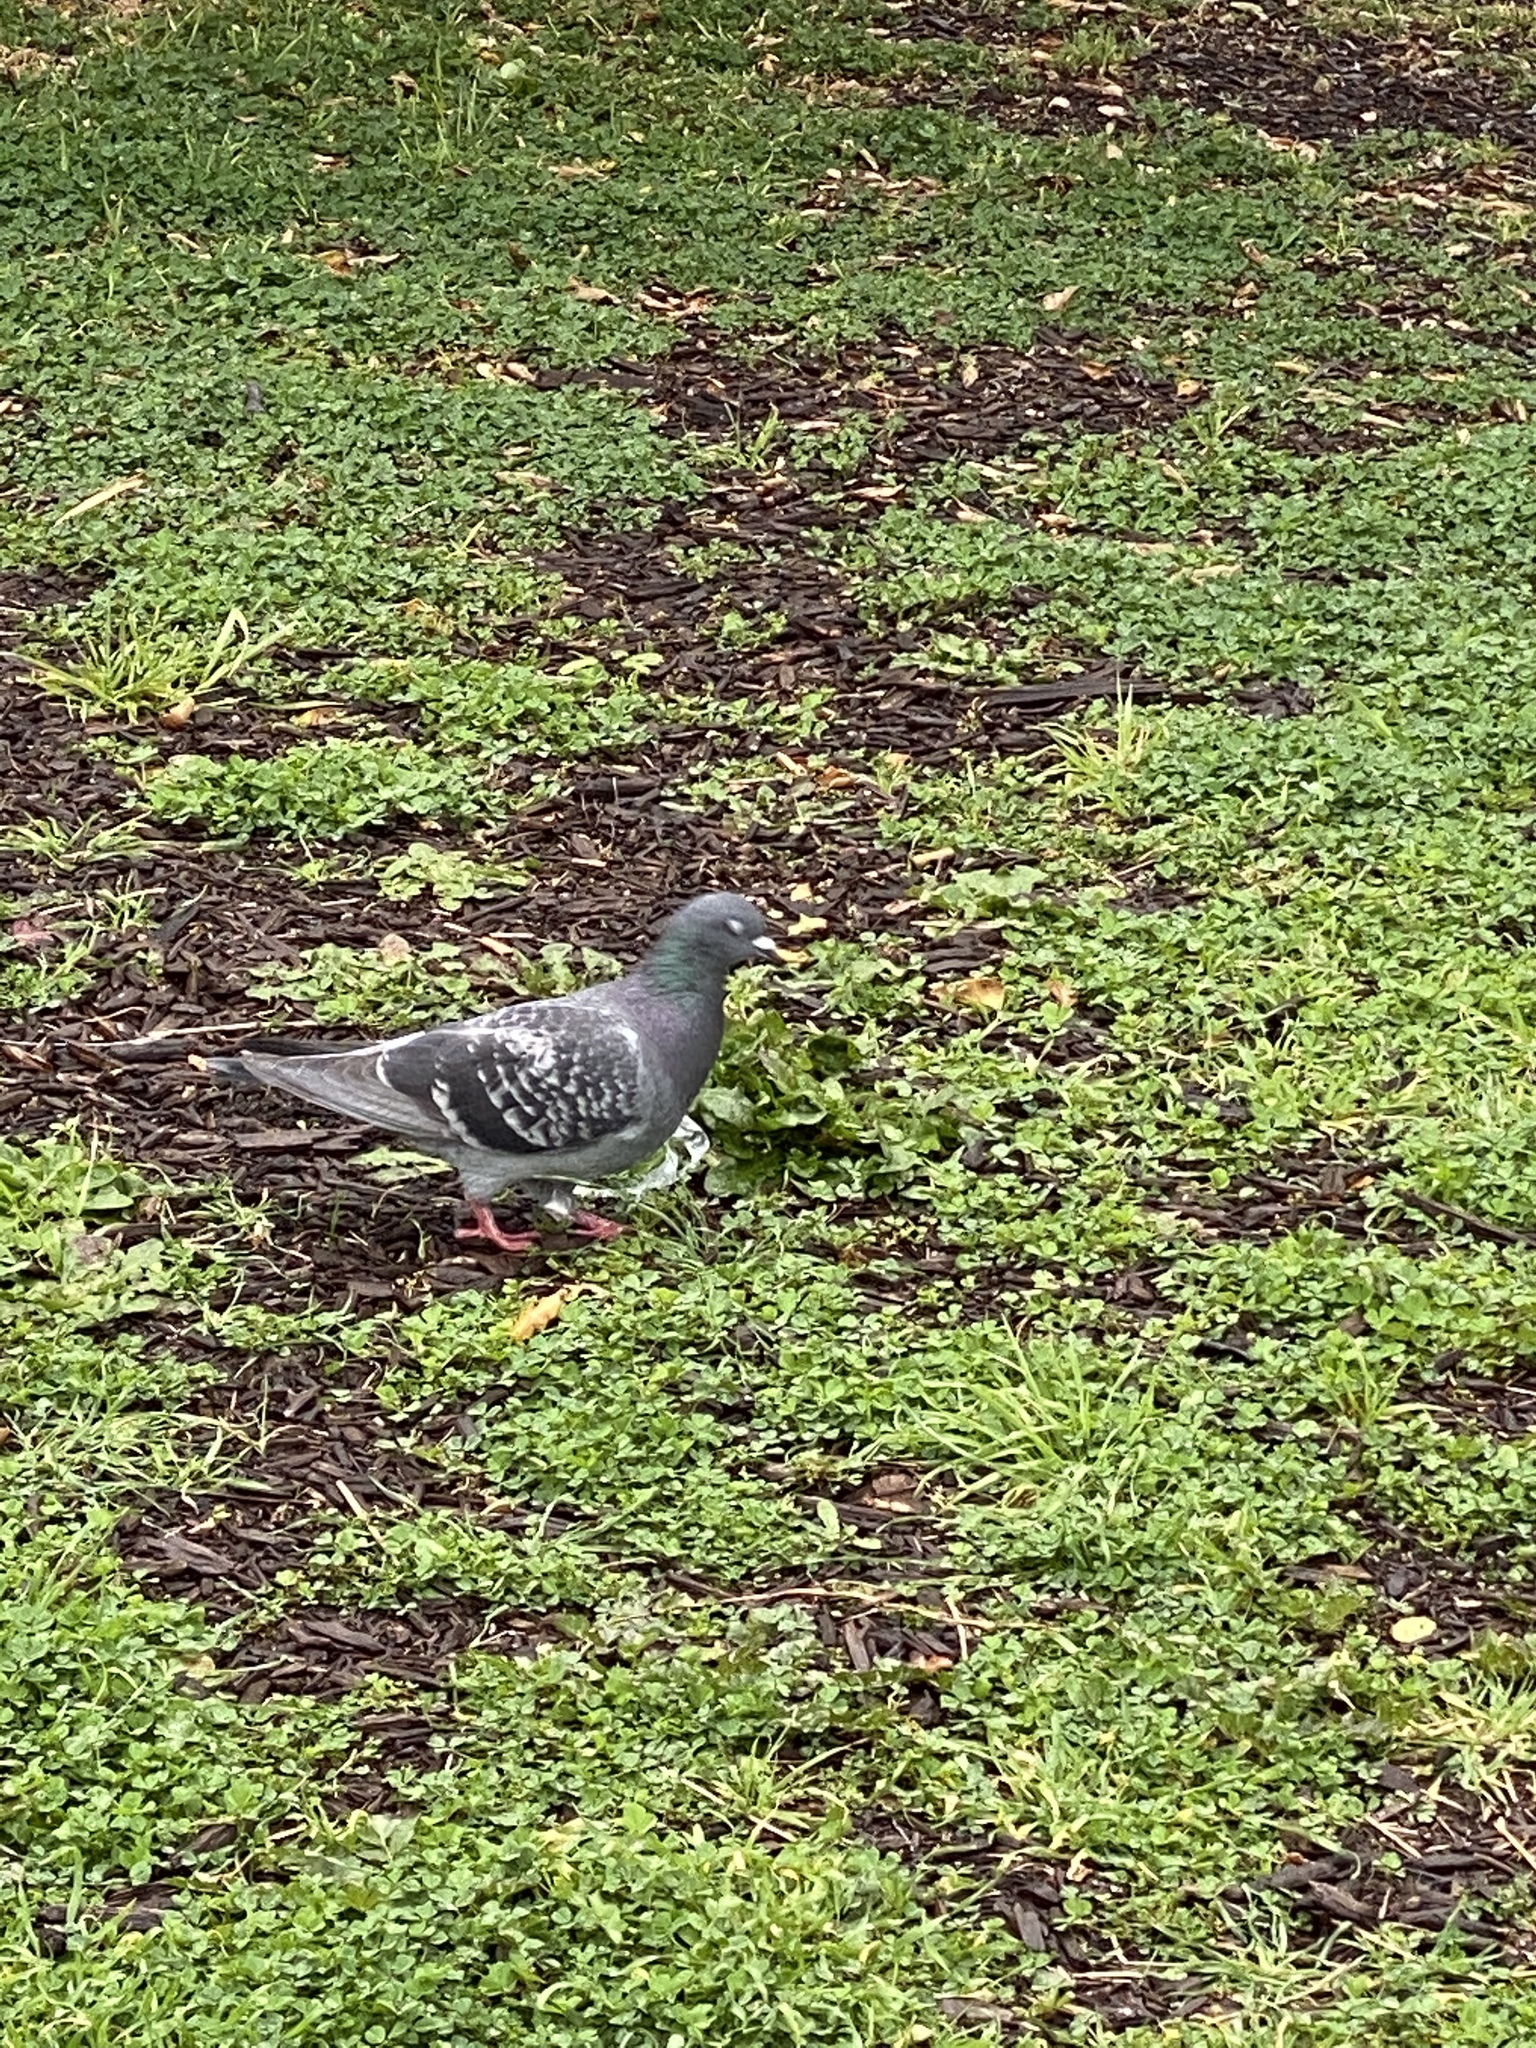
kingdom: Animalia
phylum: Chordata
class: Aves
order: Columbiformes
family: Columbidae
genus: Columba
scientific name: Columba livia
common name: Rock pigeon
